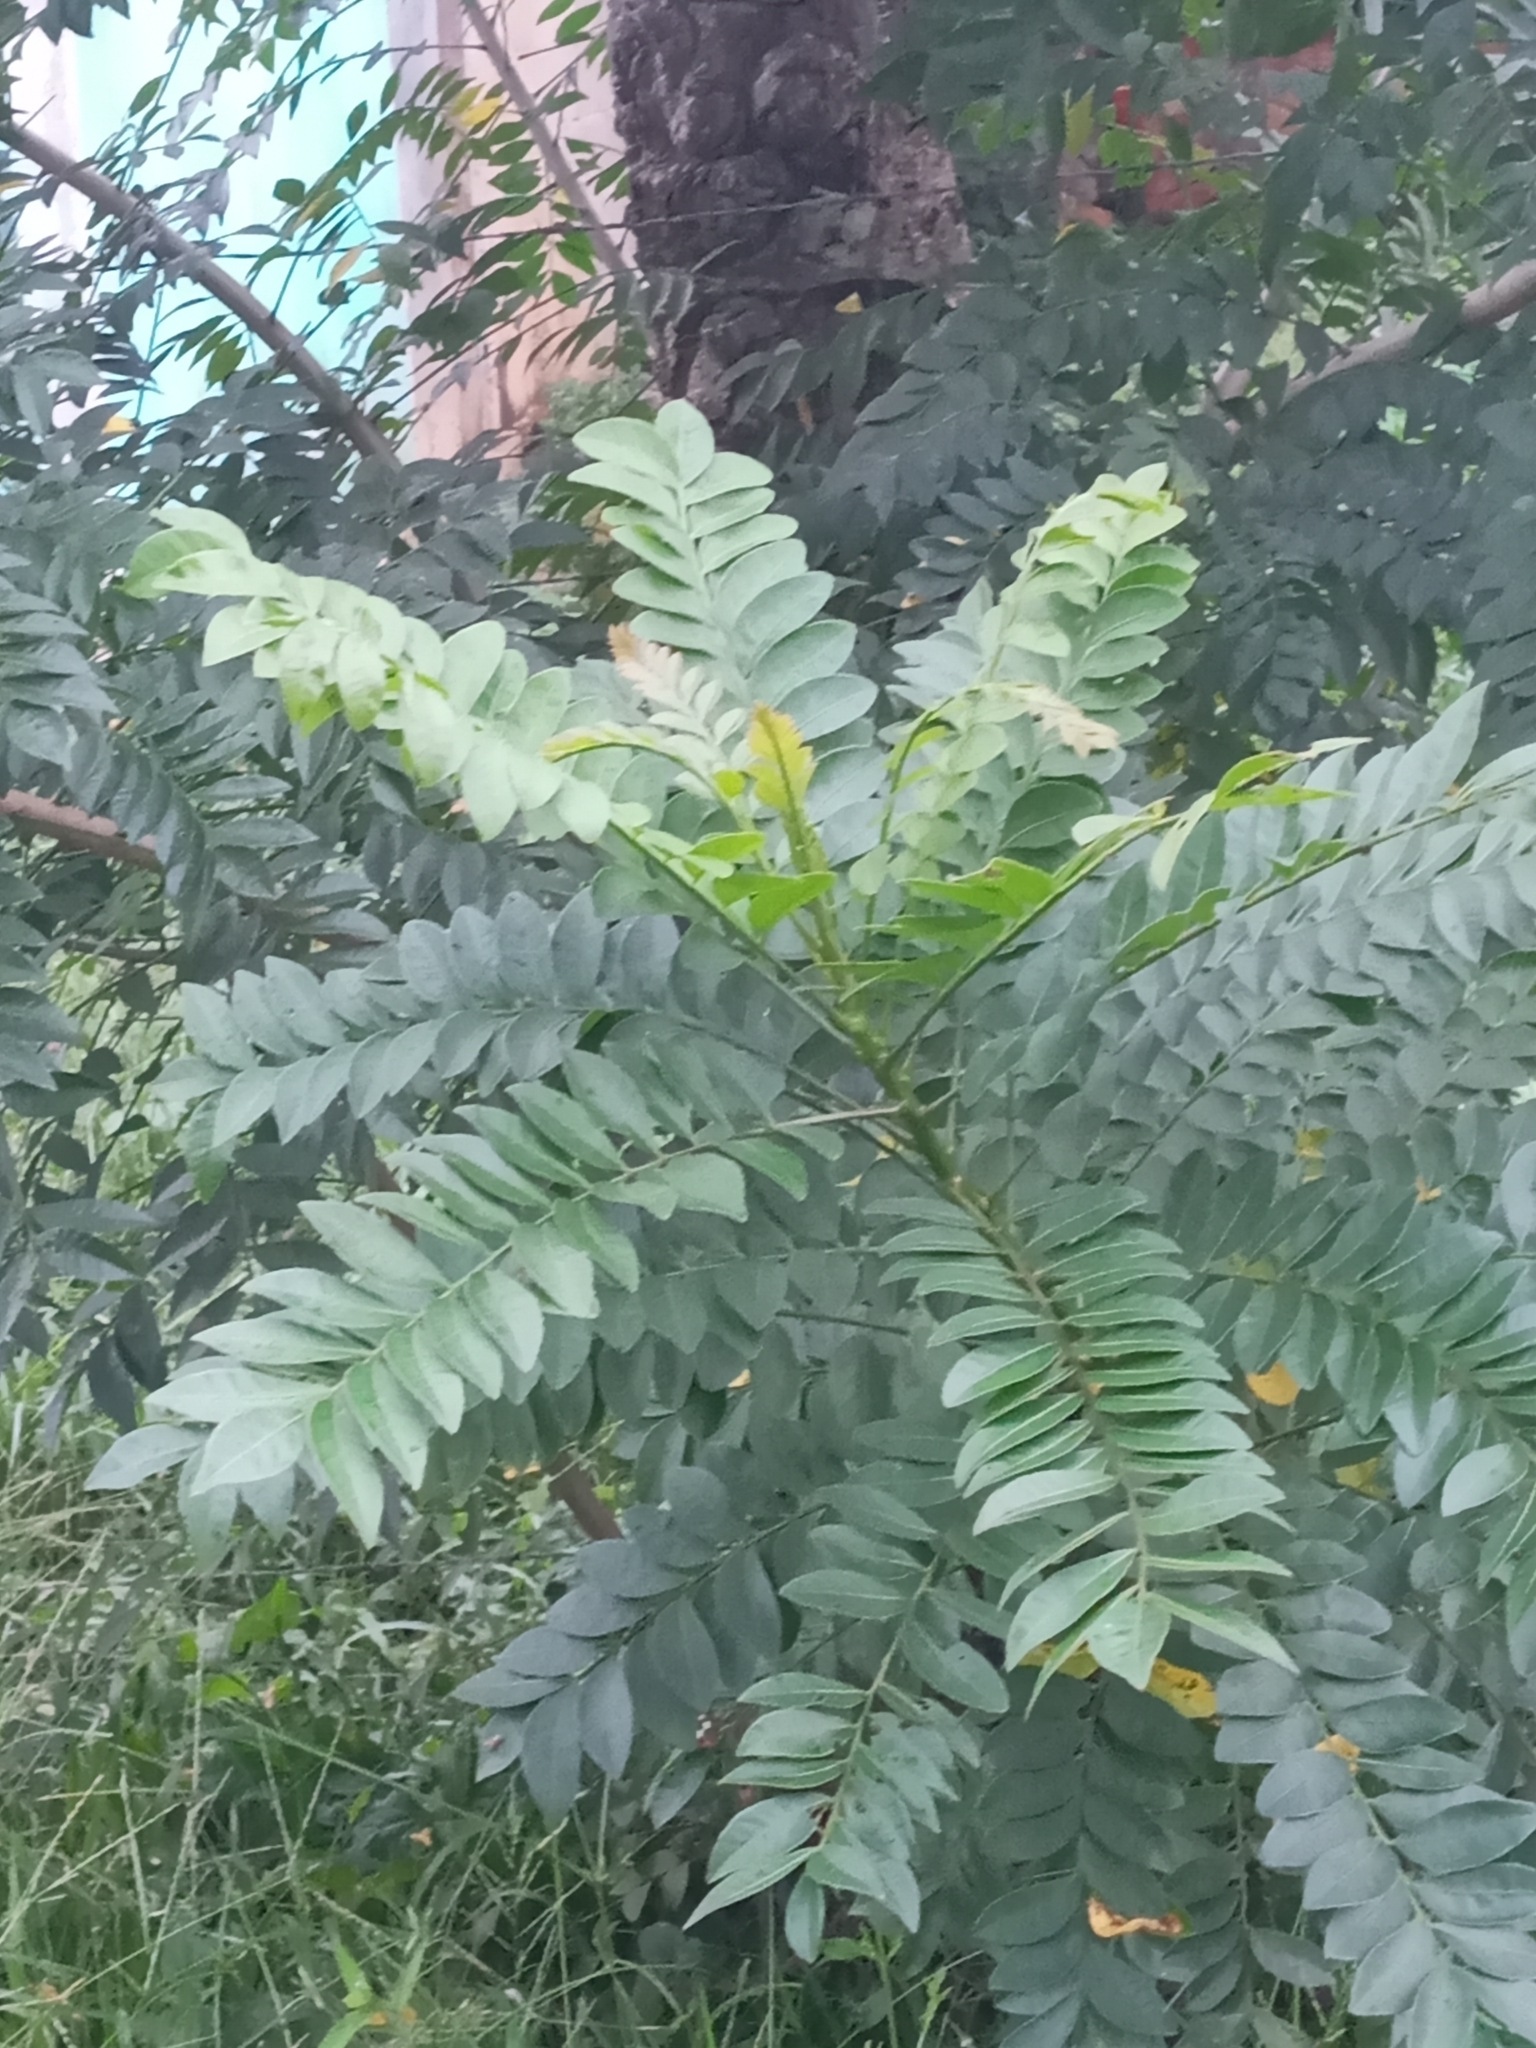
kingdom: Plantae
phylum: Tracheophyta
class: Magnoliopsida
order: Sapindales
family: Anacardiaceae
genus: Spondias
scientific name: Spondias purpurea
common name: Purple mombin
